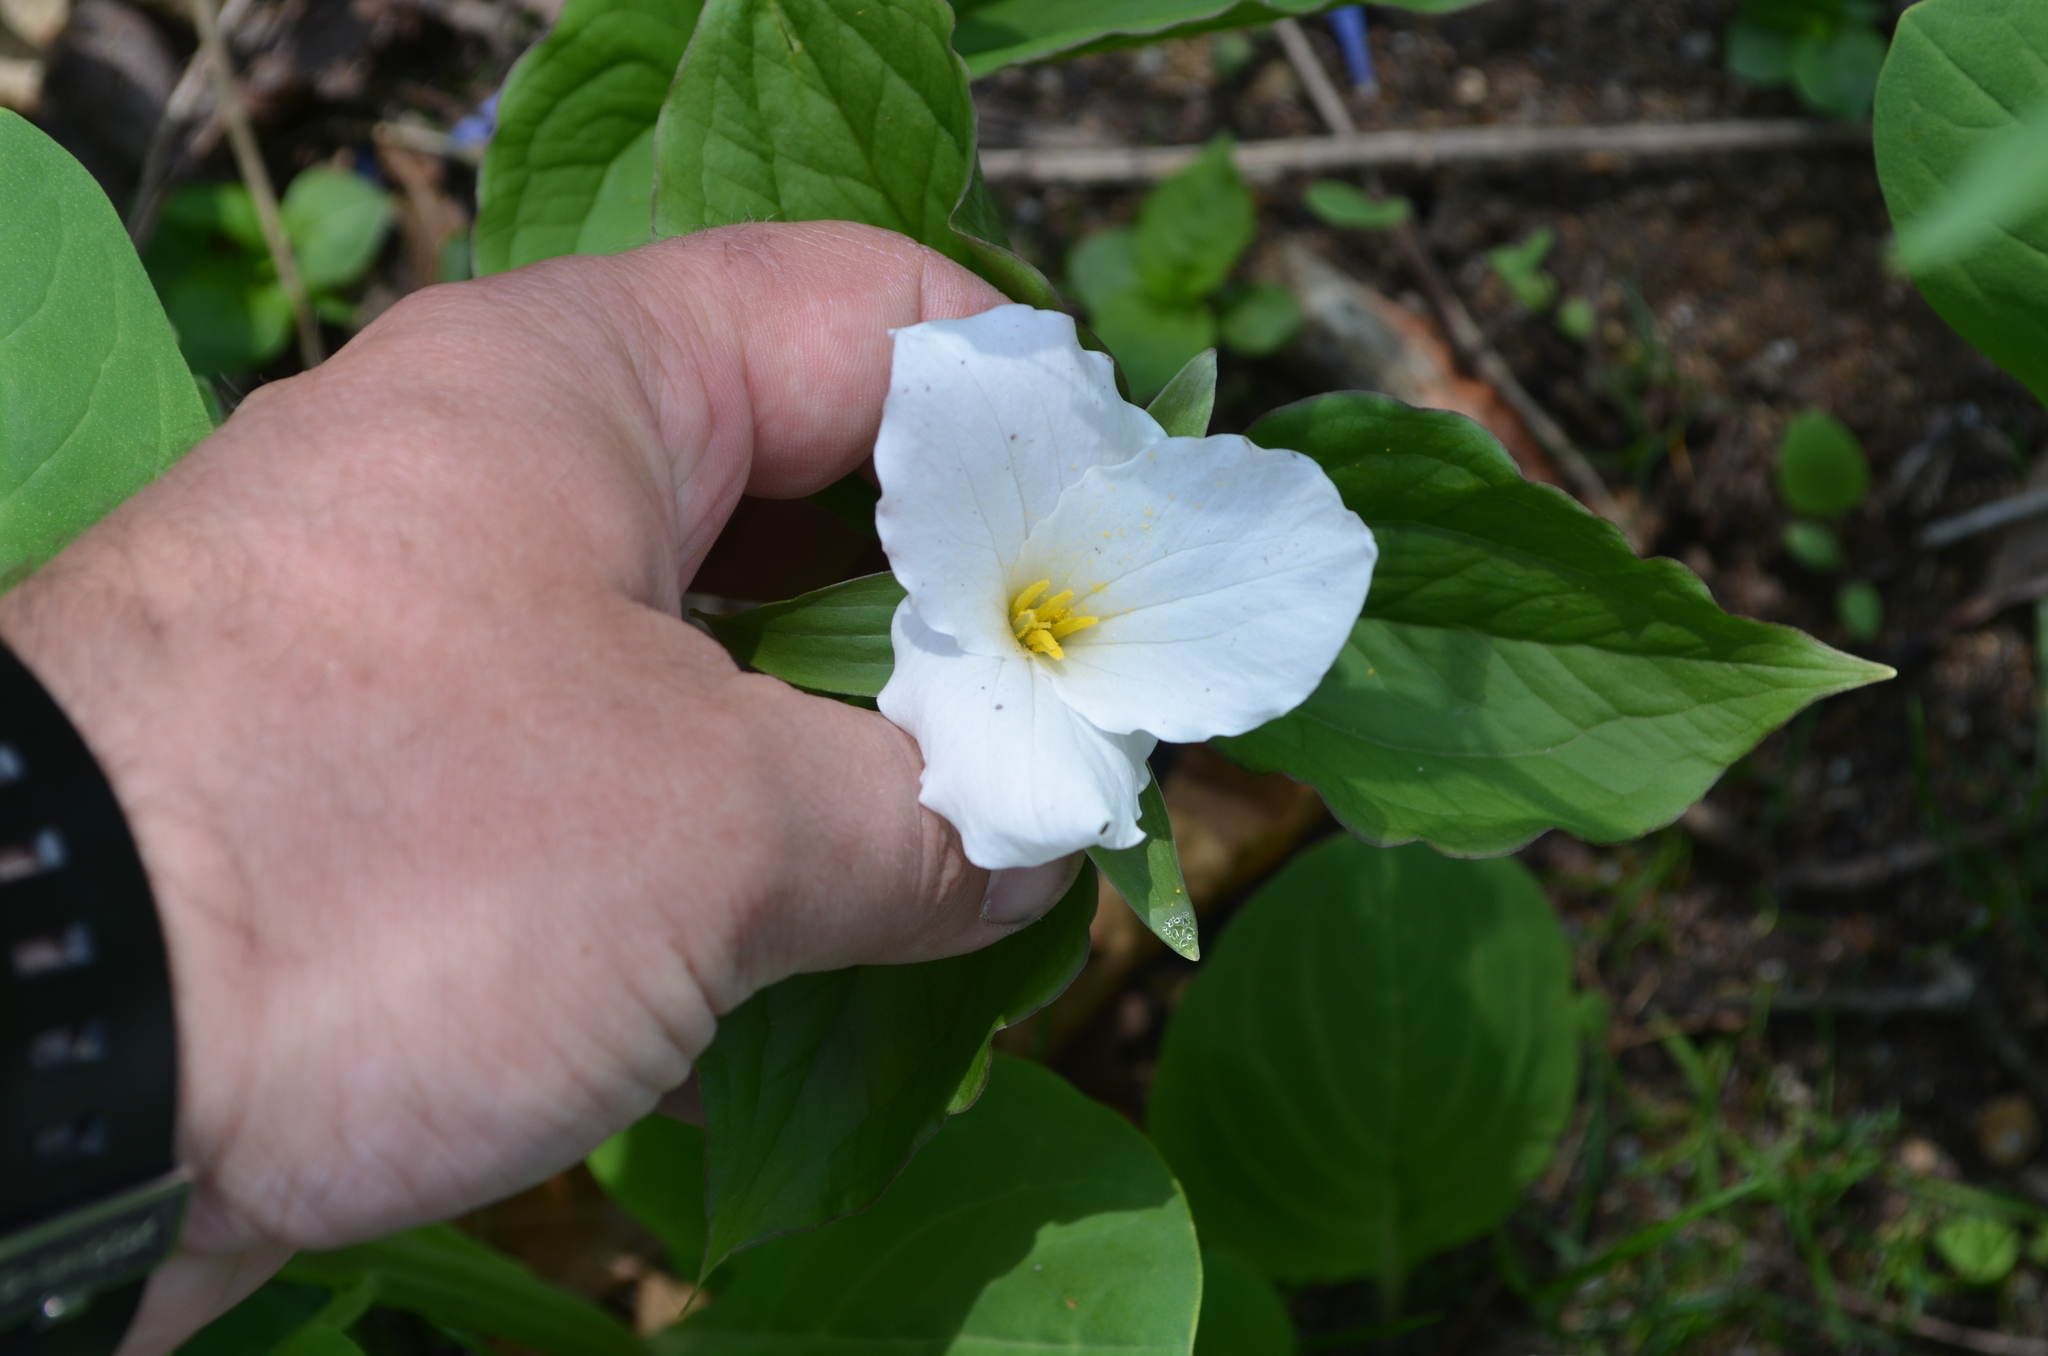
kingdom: Plantae
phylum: Tracheophyta
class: Liliopsida
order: Liliales
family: Melanthiaceae
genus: Trillium
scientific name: Trillium grandiflorum
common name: Great white trillium
